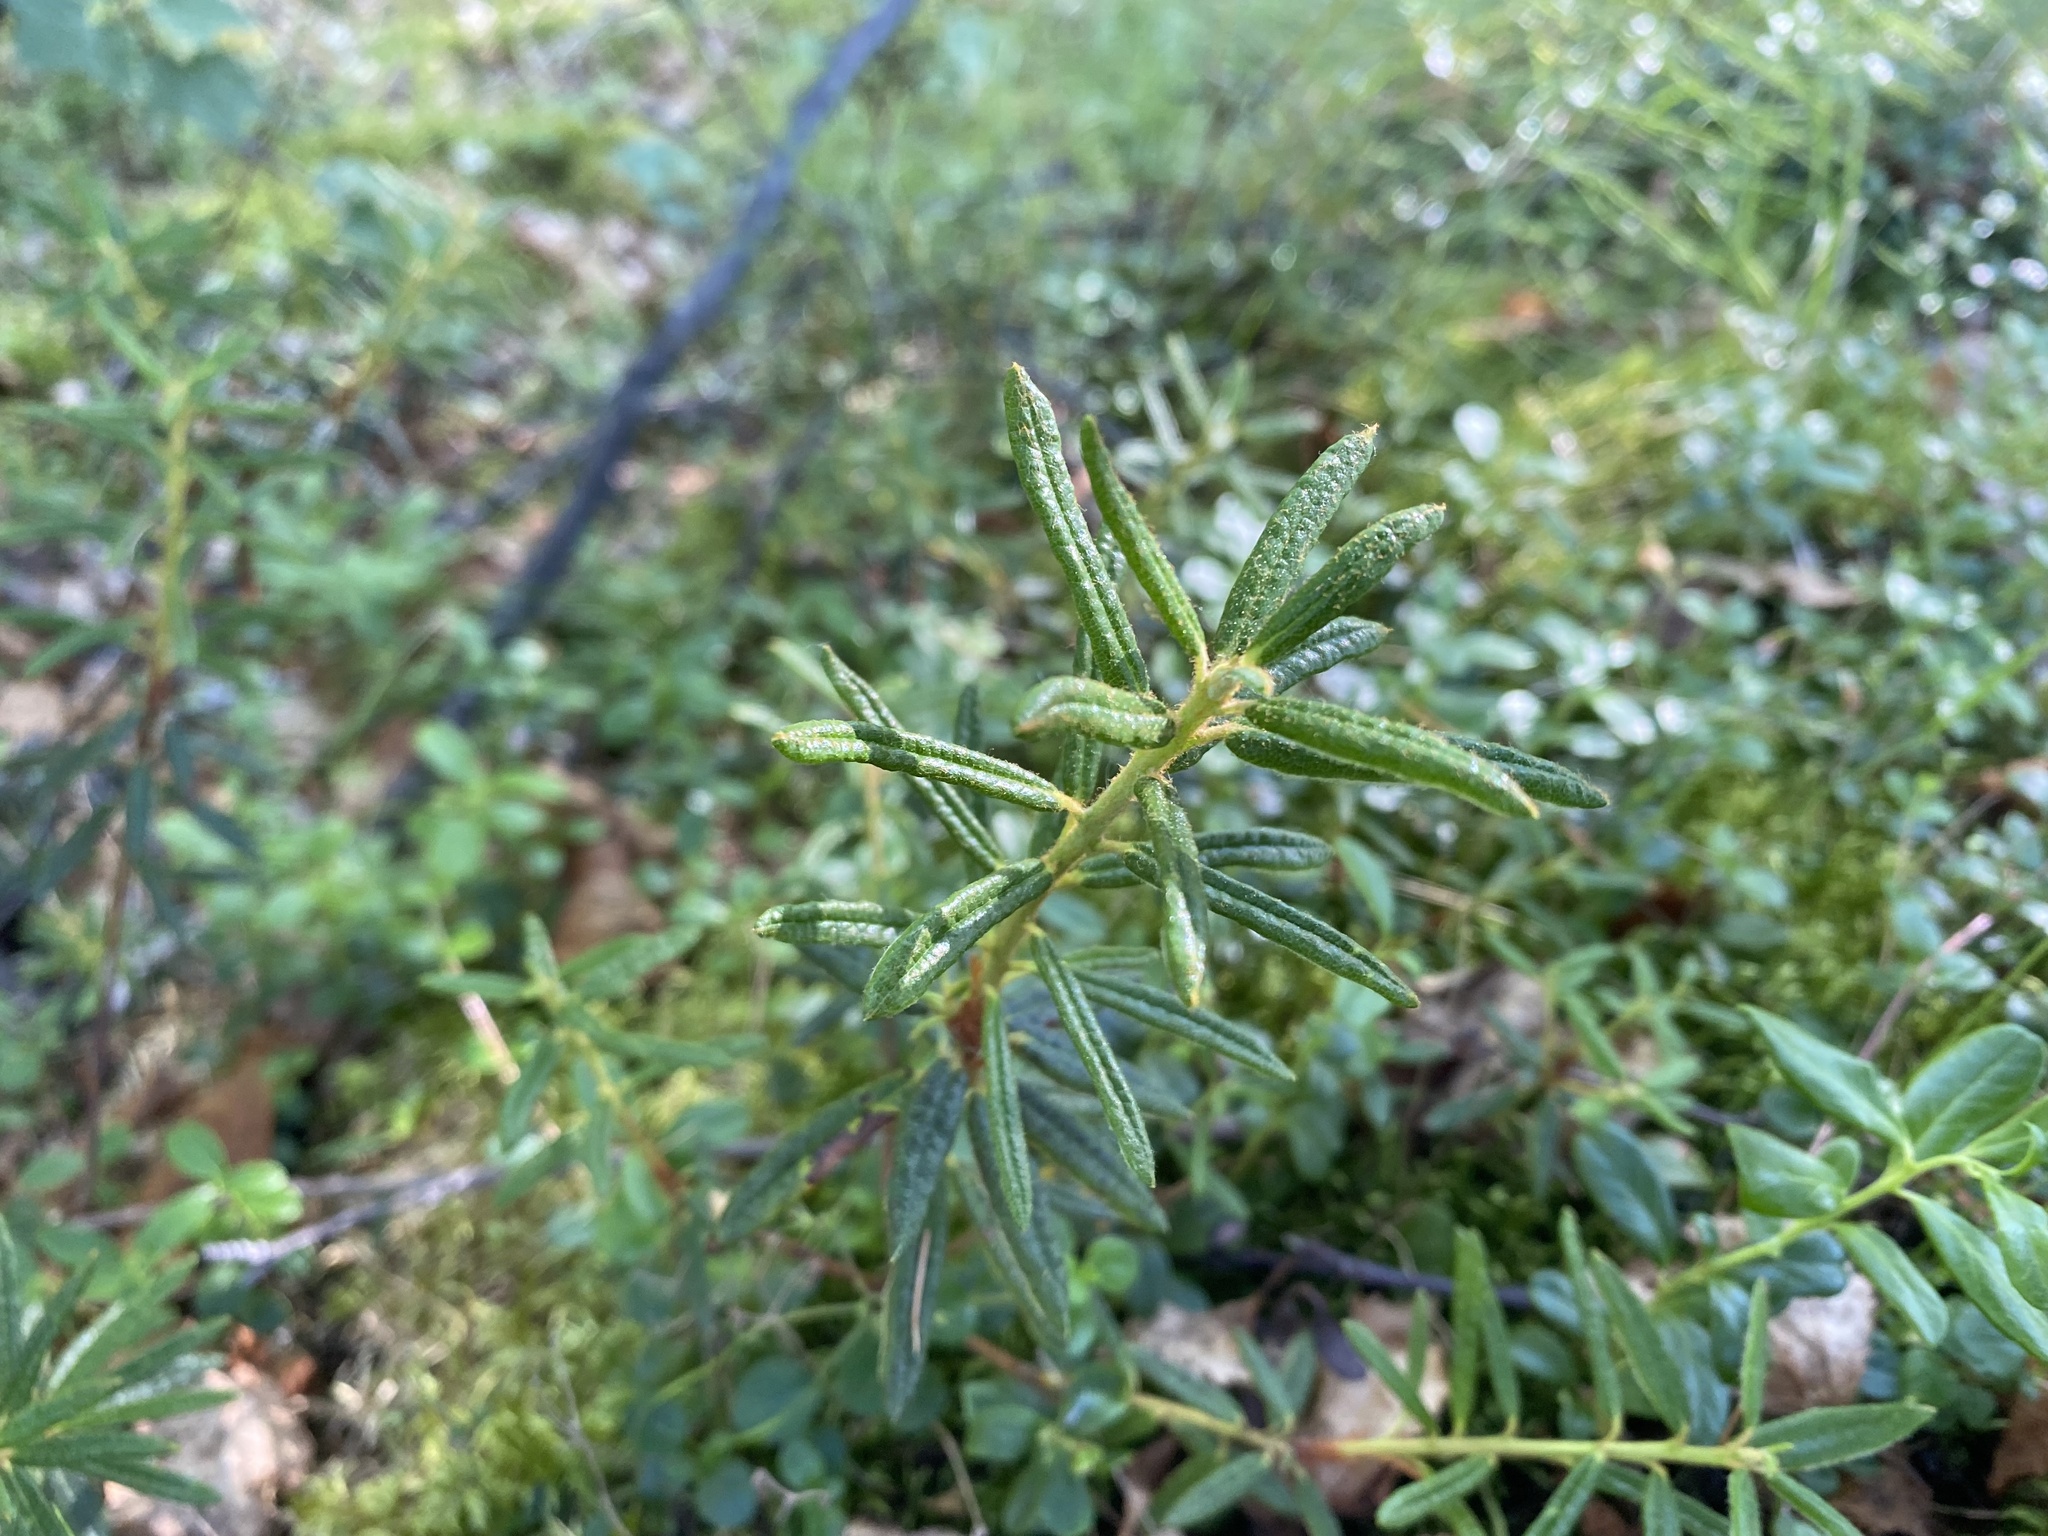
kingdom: Plantae
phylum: Tracheophyta
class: Magnoliopsida
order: Ericales
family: Ericaceae
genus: Rhododendron
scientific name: Rhododendron tomentosum
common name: Marsh labrador tea
